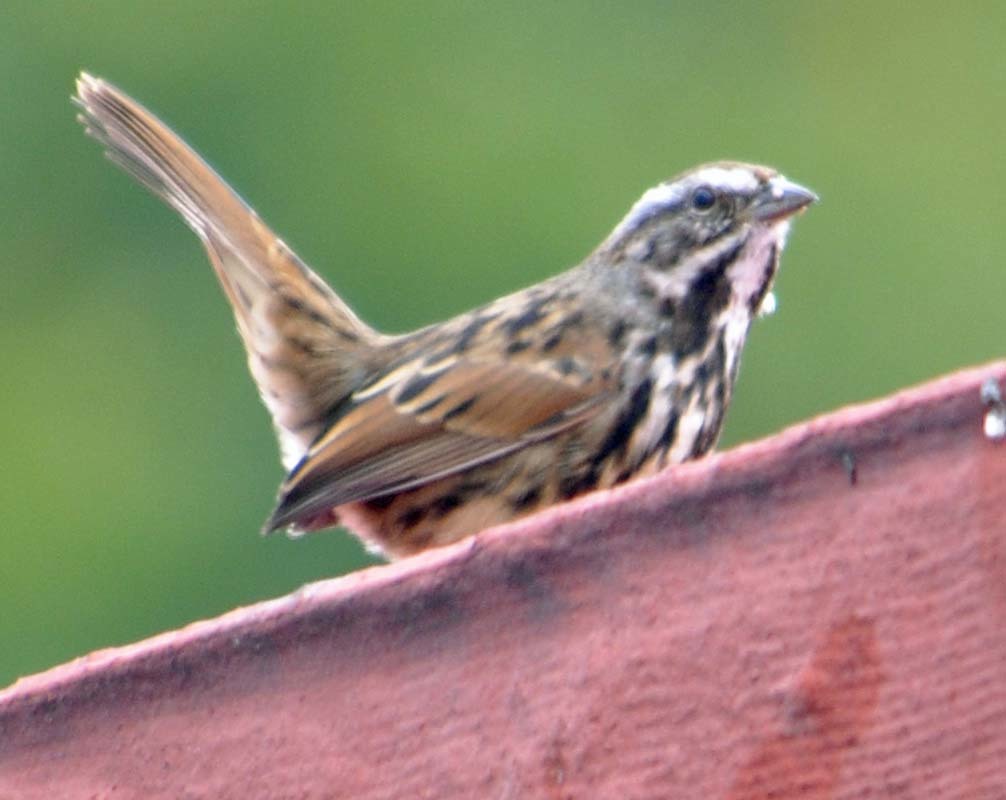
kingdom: Animalia
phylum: Chordata
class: Aves
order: Passeriformes
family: Passerellidae
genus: Melospiza
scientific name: Melospiza melodia
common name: Song sparrow
